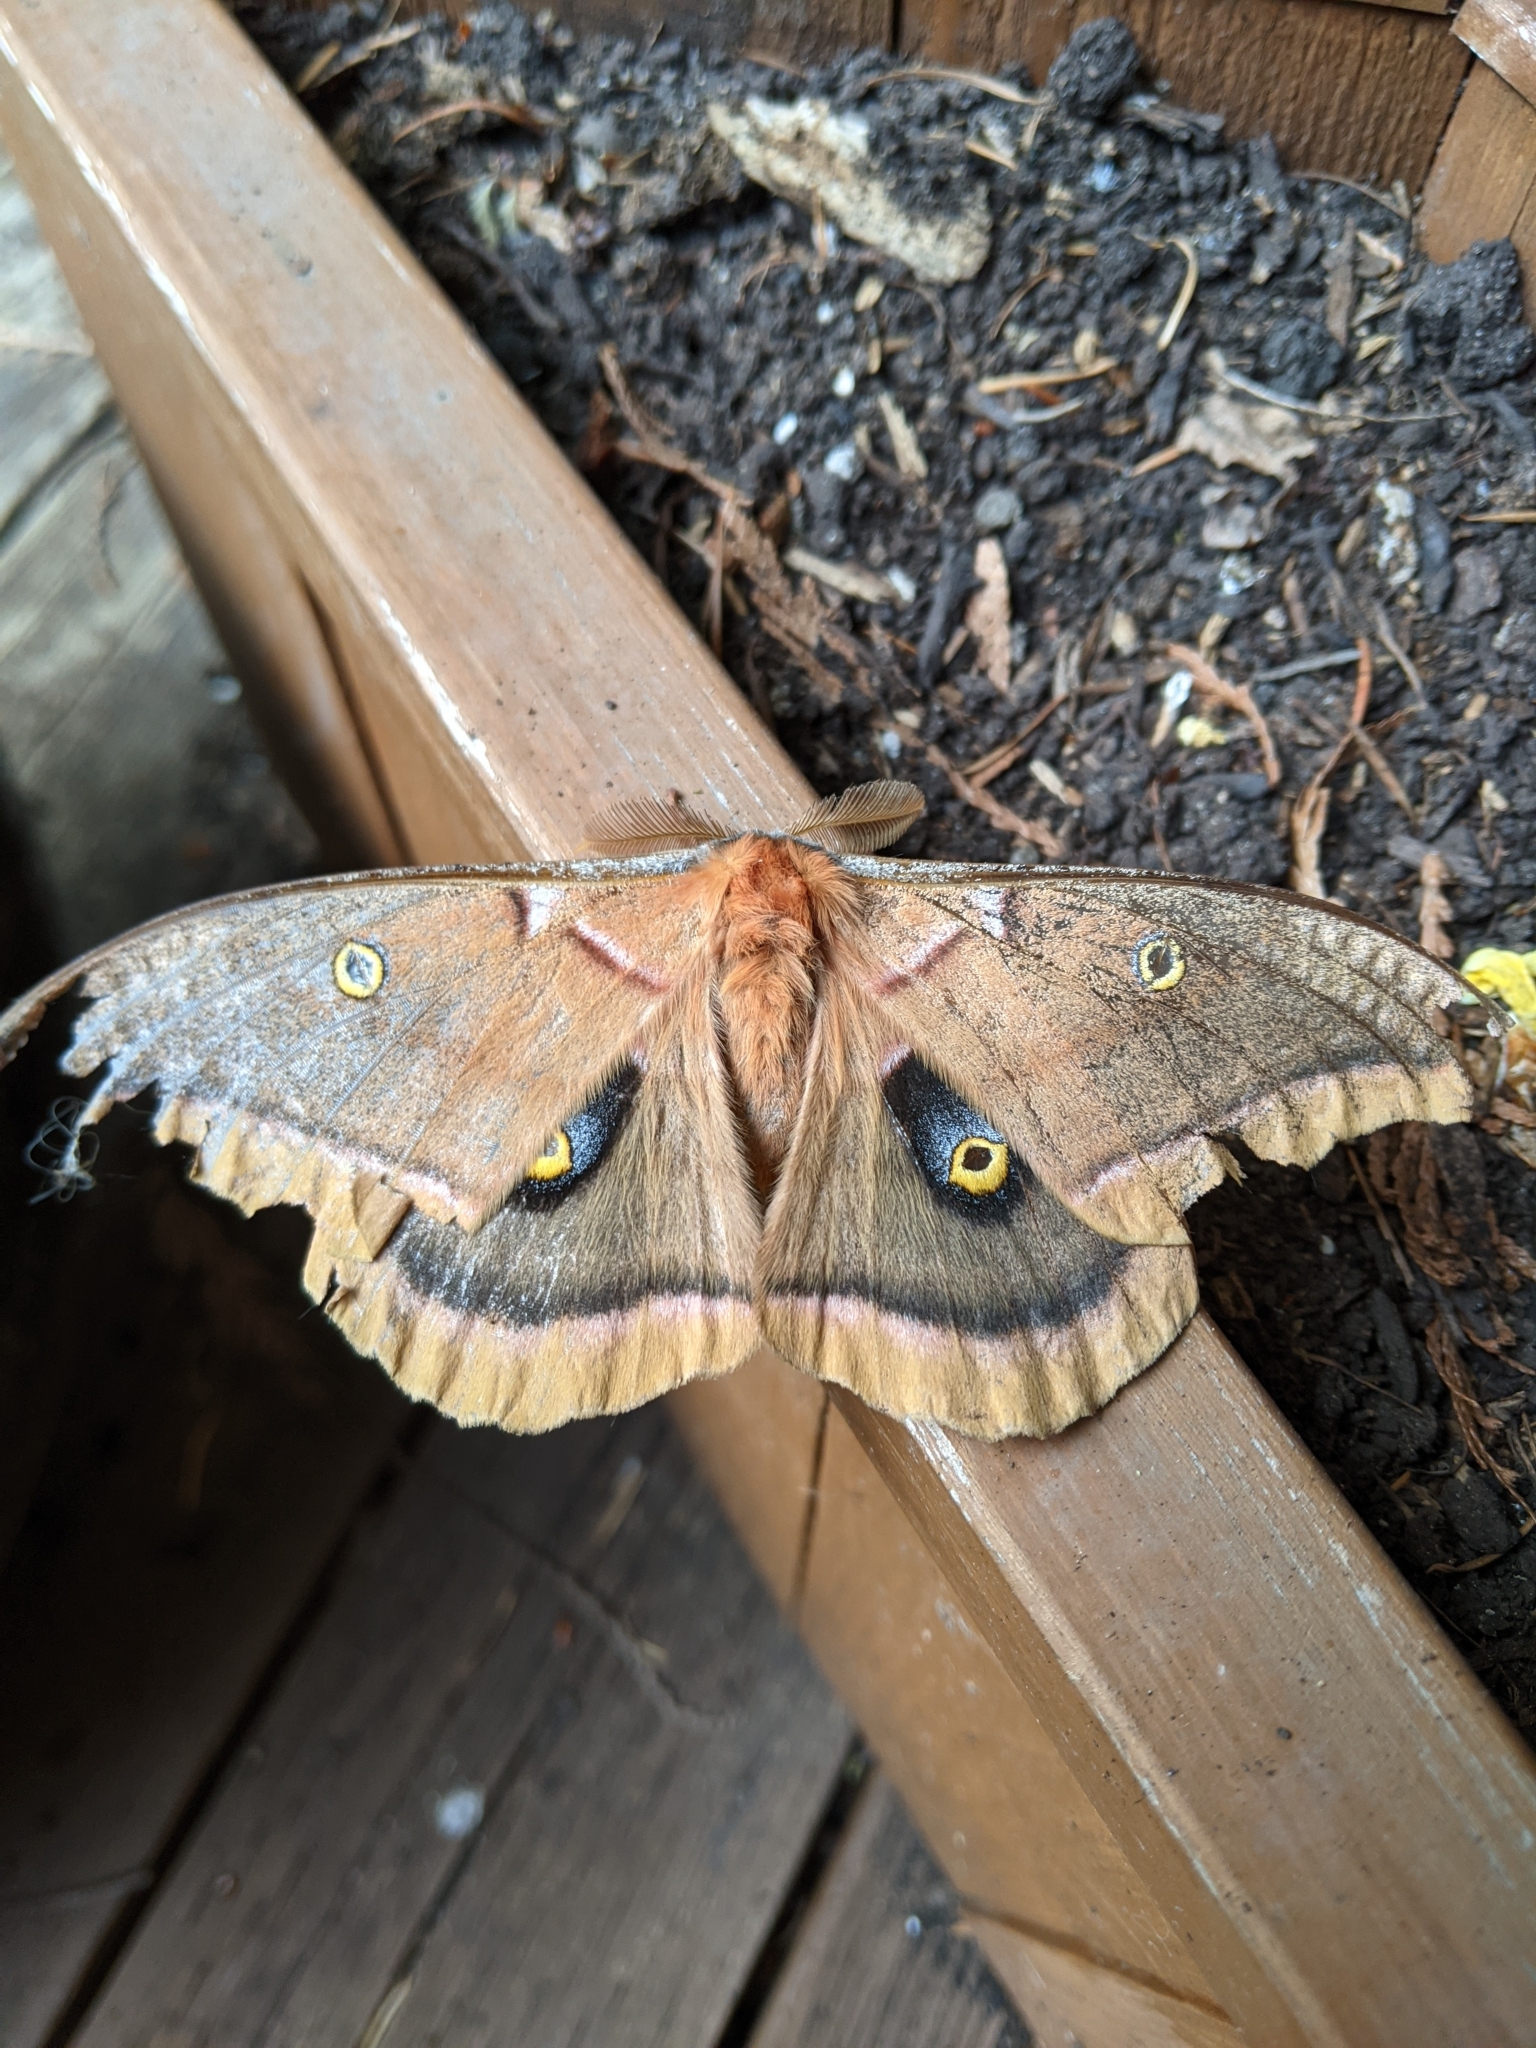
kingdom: Animalia
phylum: Arthropoda
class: Insecta
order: Lepidoptera
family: Saturniidae
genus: Antheraea
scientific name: Antheraea polyphemus
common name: Polyphemus moth
